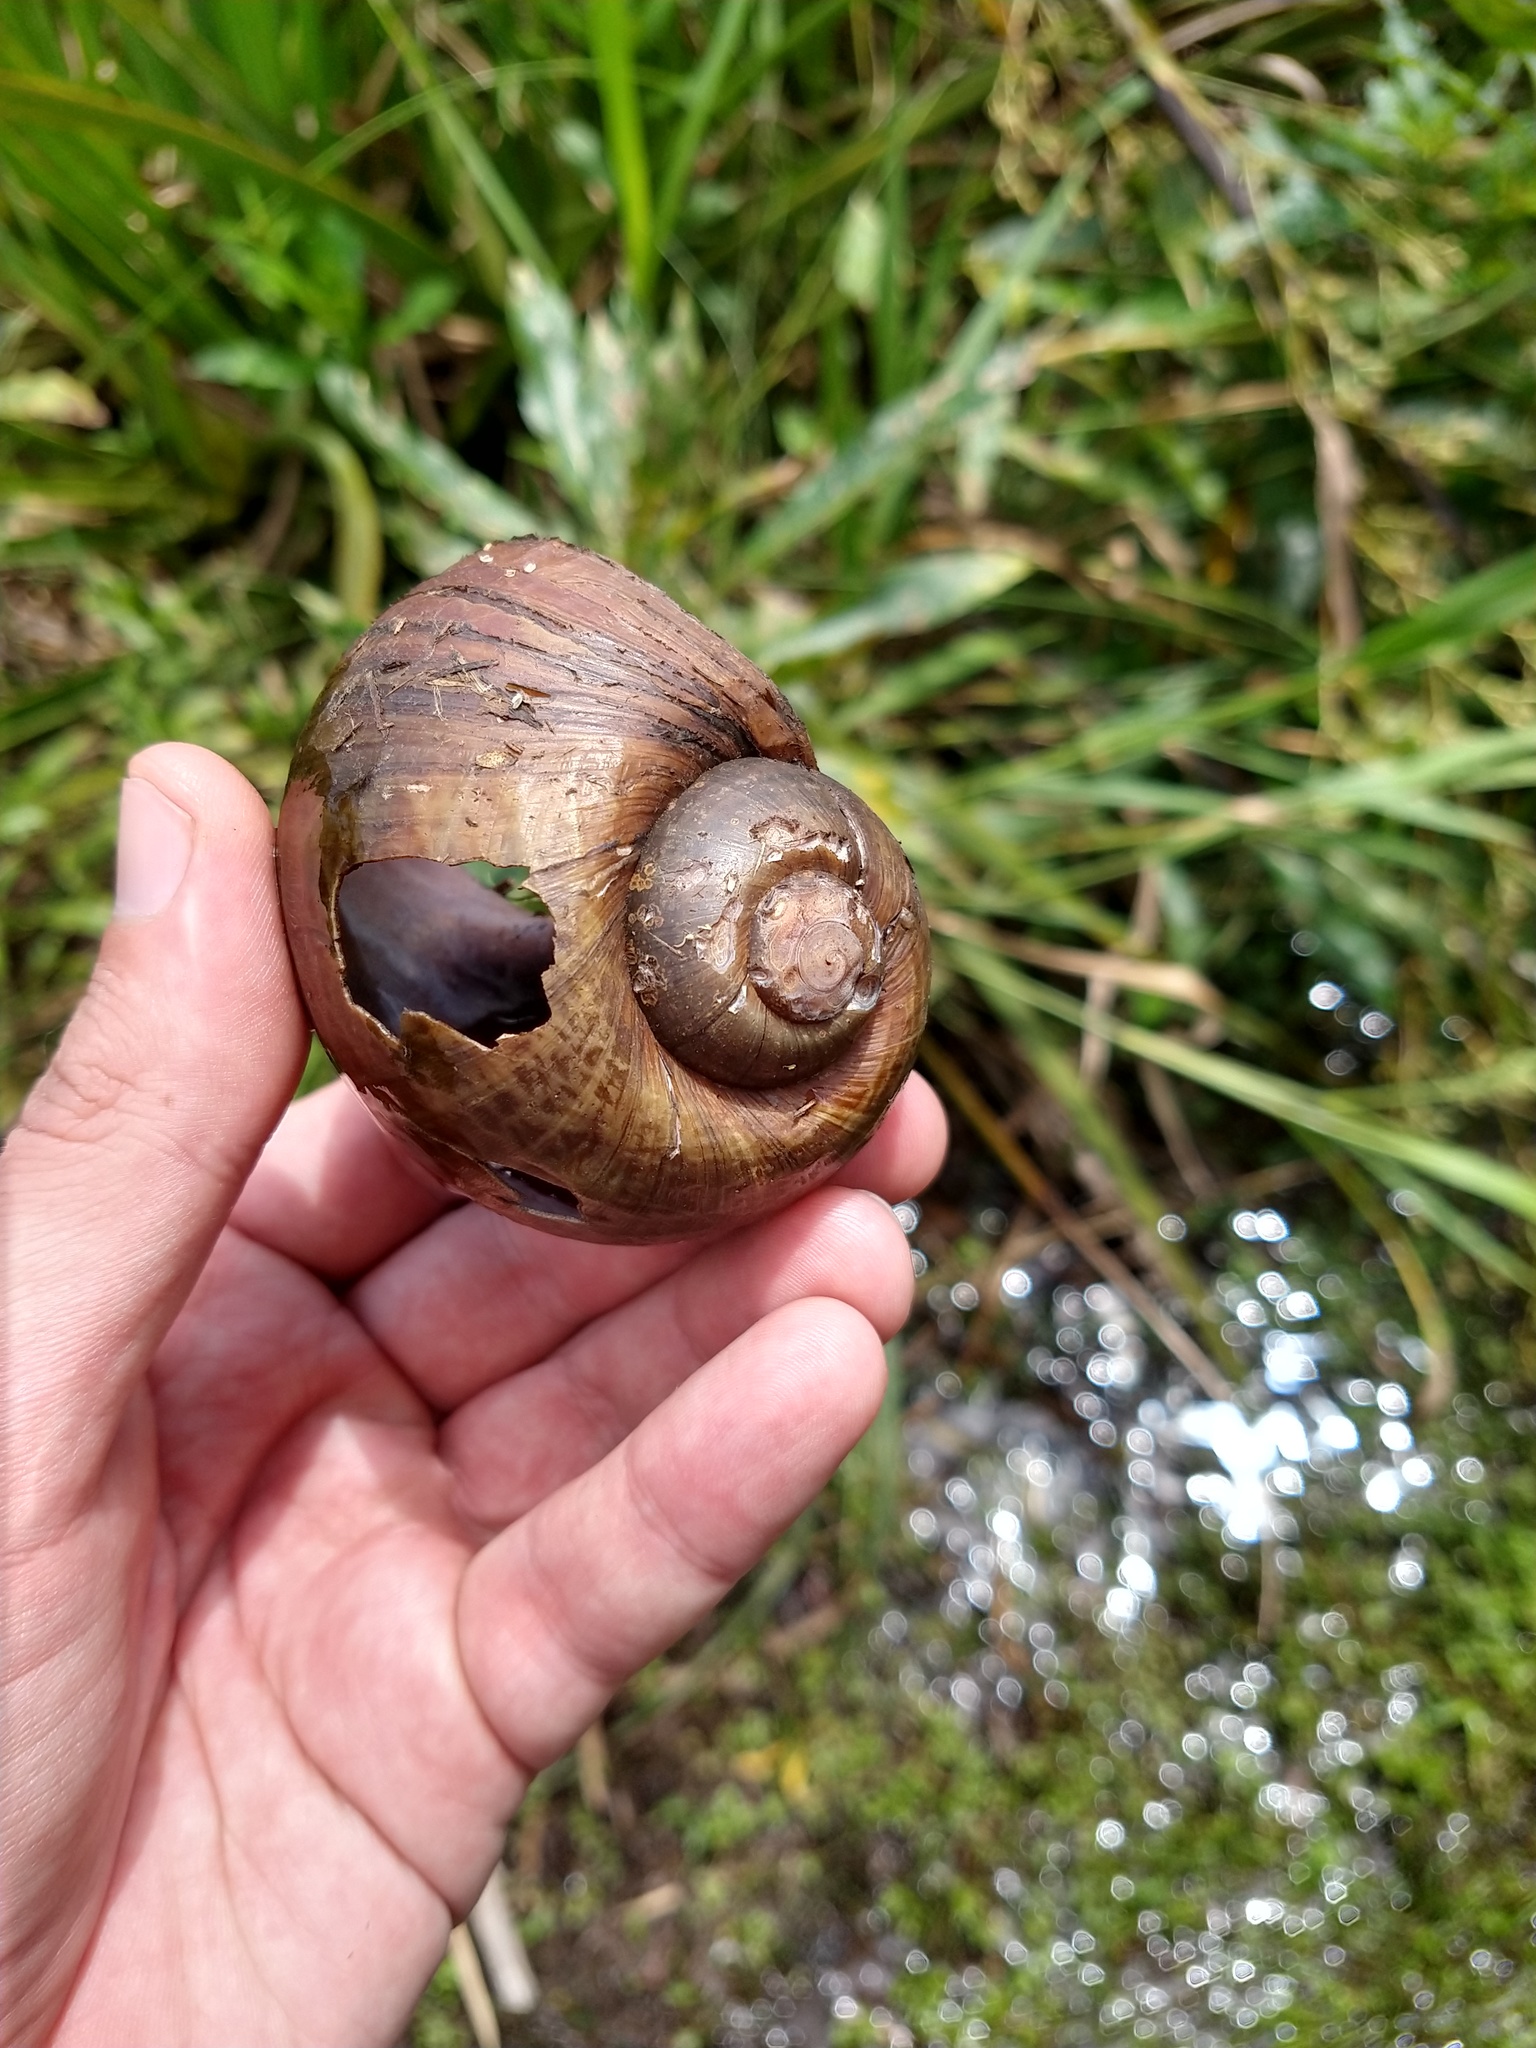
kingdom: Animalia
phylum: Mollusca
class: Gastropoda
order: Architaenioglossa
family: Ampullariidae
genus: Pomacea
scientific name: Pomacea canaliculata
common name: Channeled applesnail
